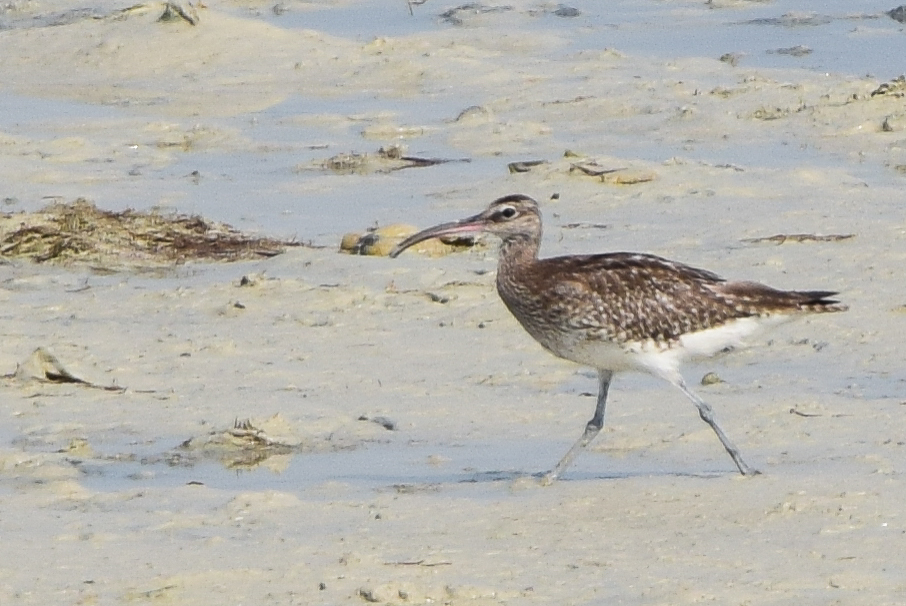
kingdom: Animalia
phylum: Chordata
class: Aves
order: Charadriiformes
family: Scolopacidae
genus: Numenius
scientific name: Numenius phaeopus
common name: Whimbrel
